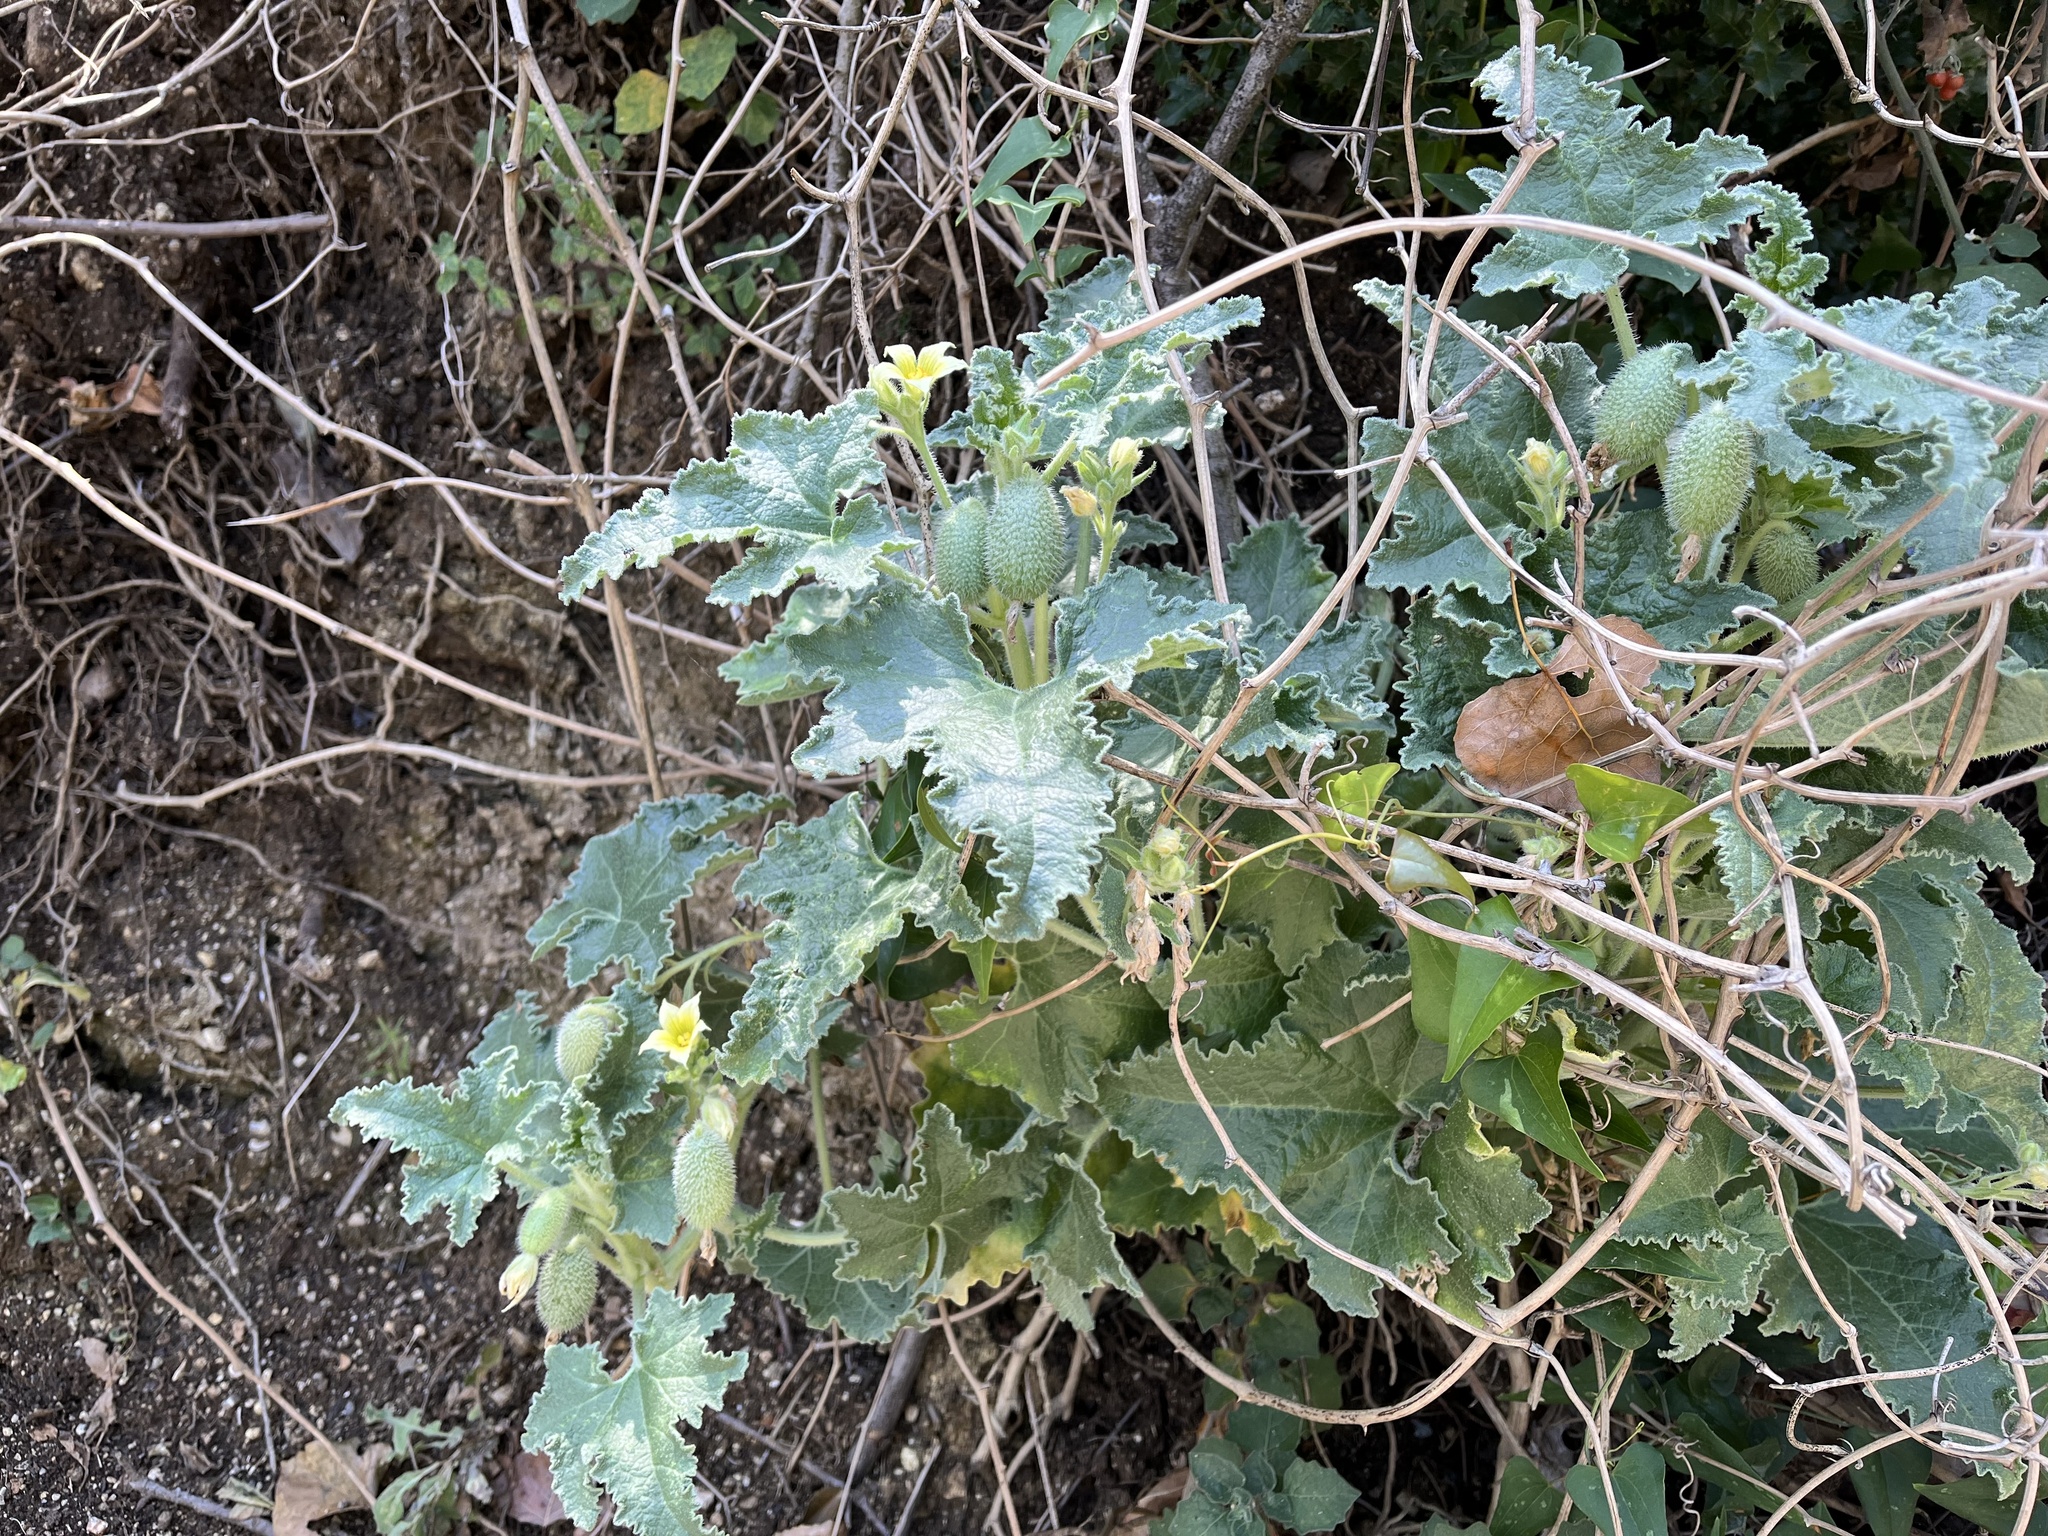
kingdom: Plantae
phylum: Tracheophyta
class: Magnoliopsida
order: Cucurbitales
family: Cucurbitaceae
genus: Ecballium
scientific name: Ecballium elaterium
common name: Squirting cucumber
